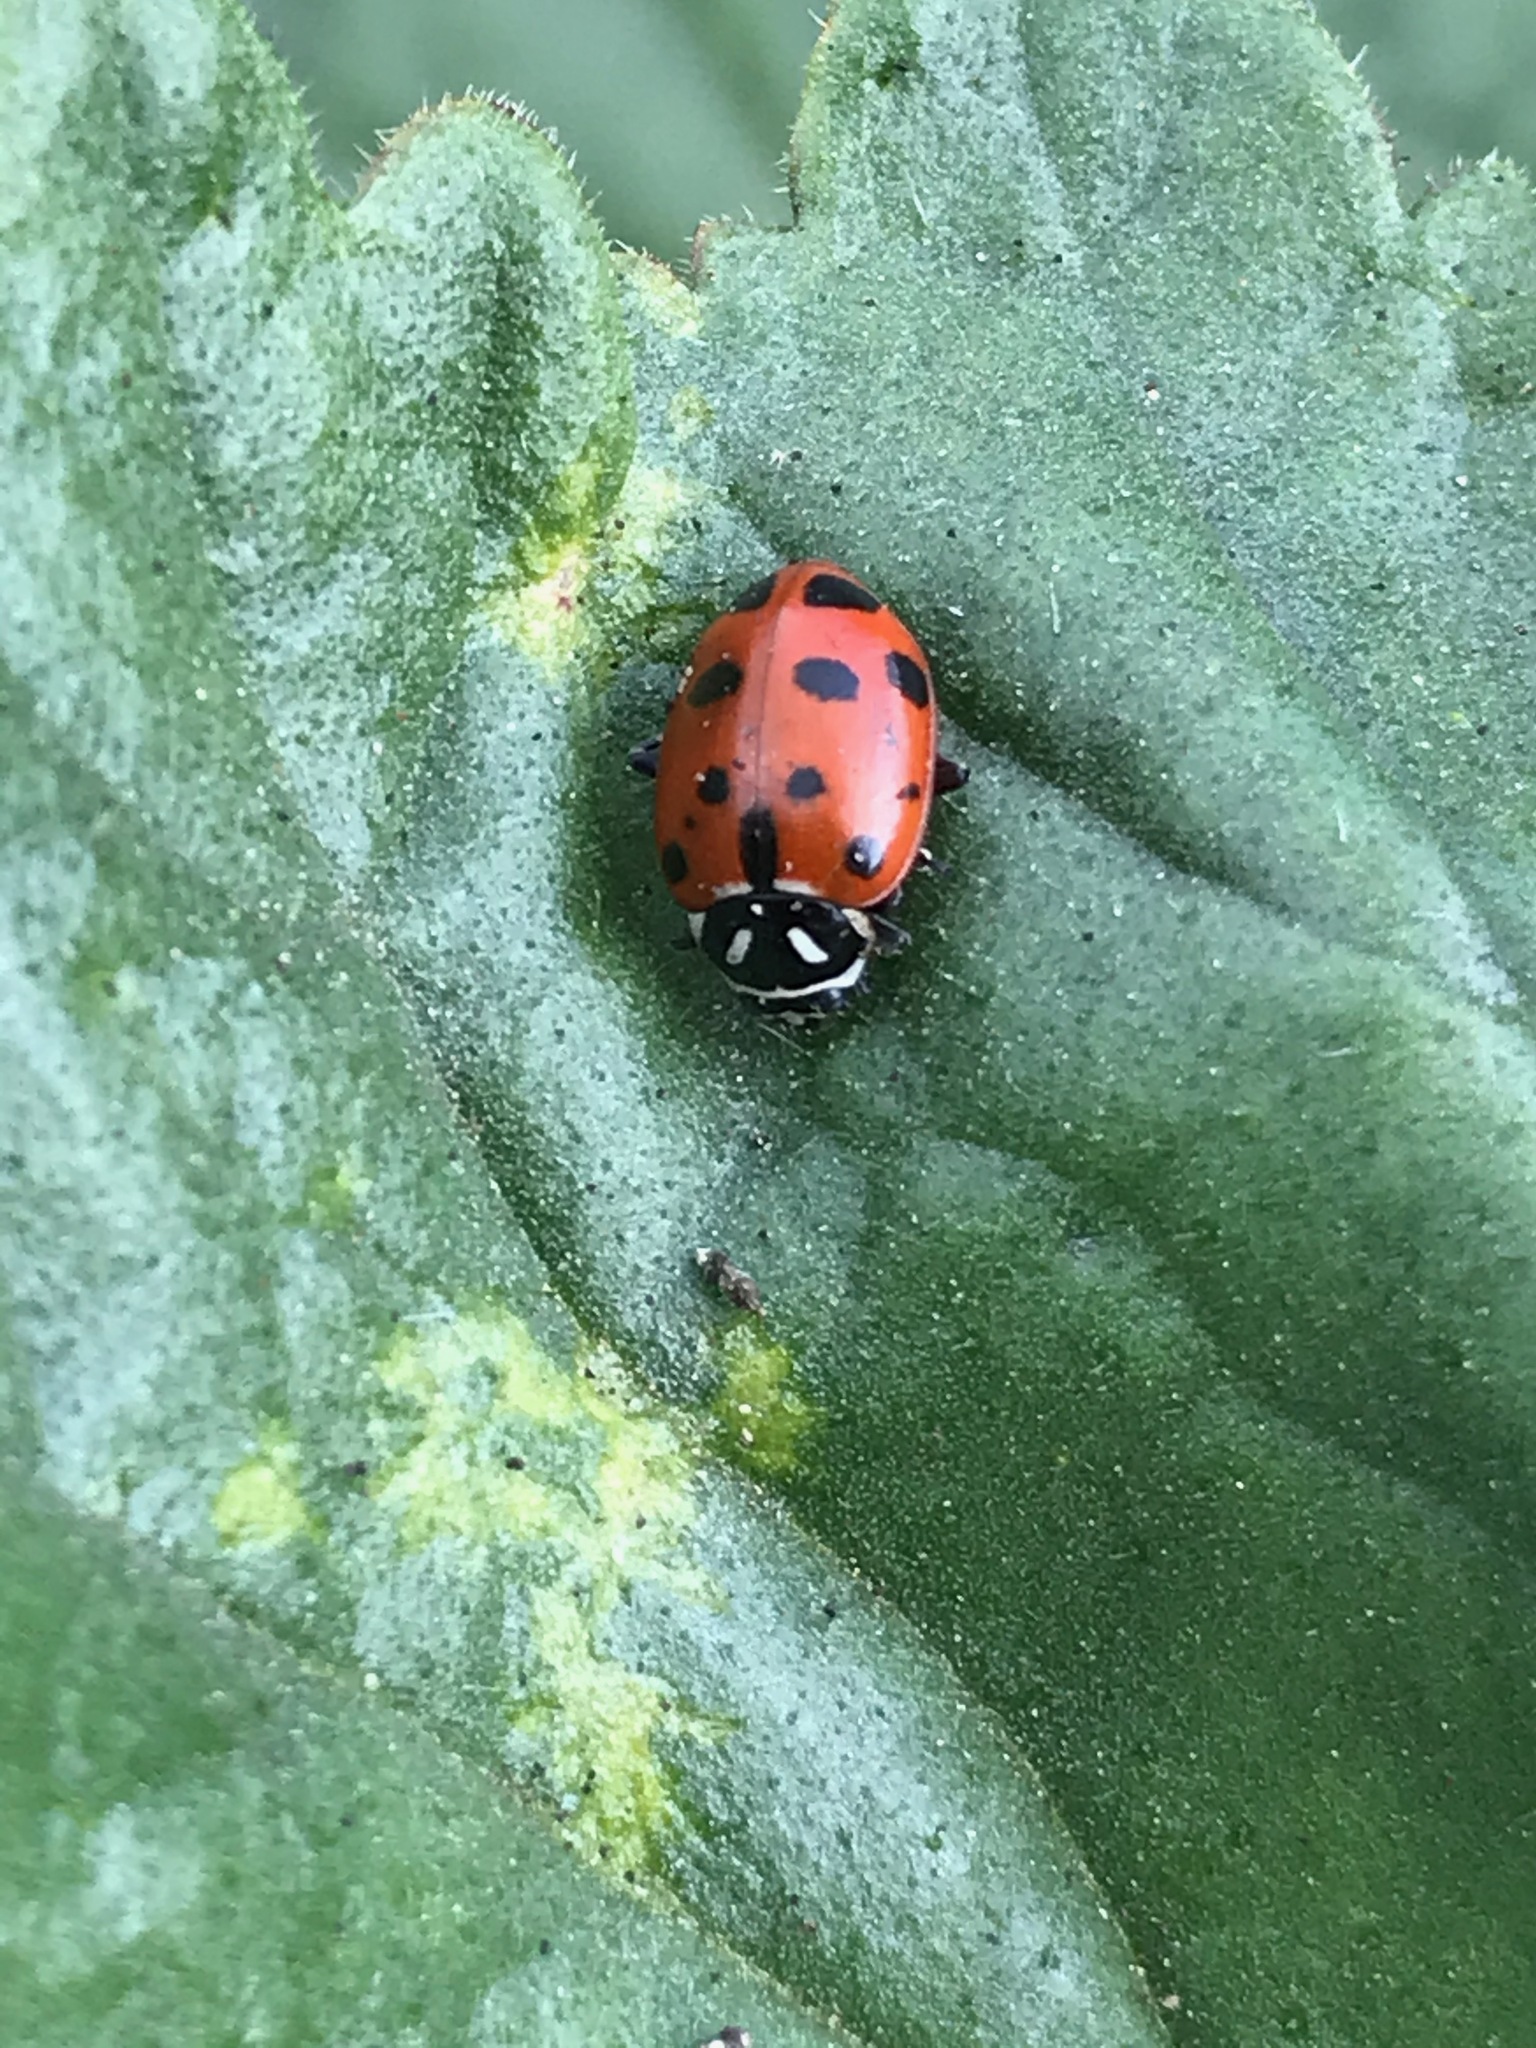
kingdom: Animalia
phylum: Arthropoda
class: Insecta
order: Coleoptera
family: Coccinellidae
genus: Hippodamia
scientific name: Hippodamia convergens
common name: Convergent lady beetle
